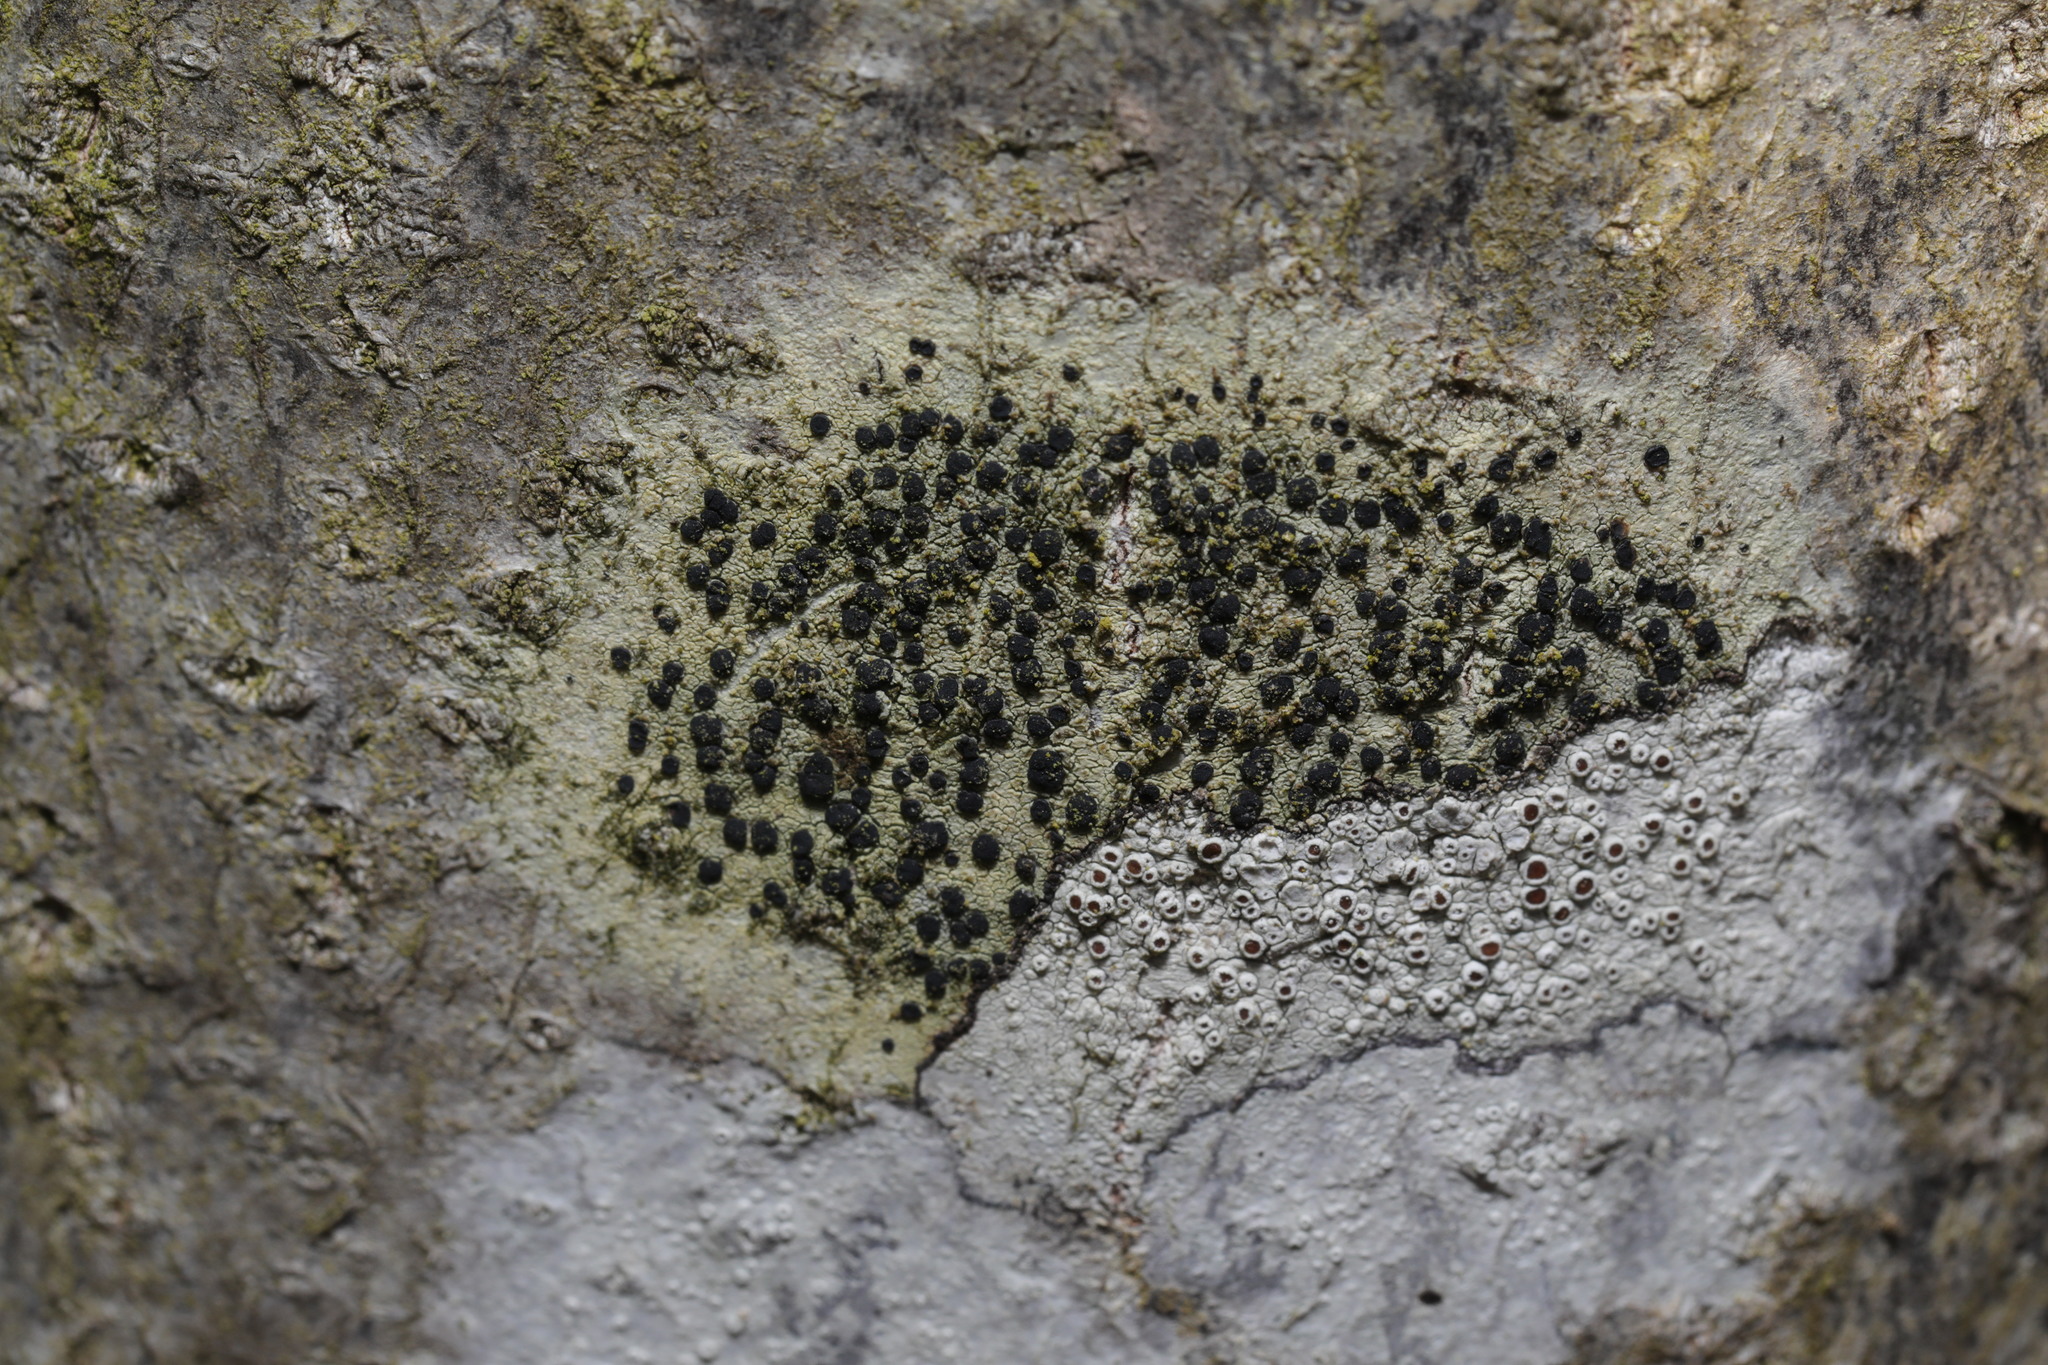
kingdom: Fungi
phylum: Ascomycota
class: Lecanoromycetes
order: Lecanorales
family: Lecanoraceae
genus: Lecidella
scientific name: Lecidella elaeochroma
